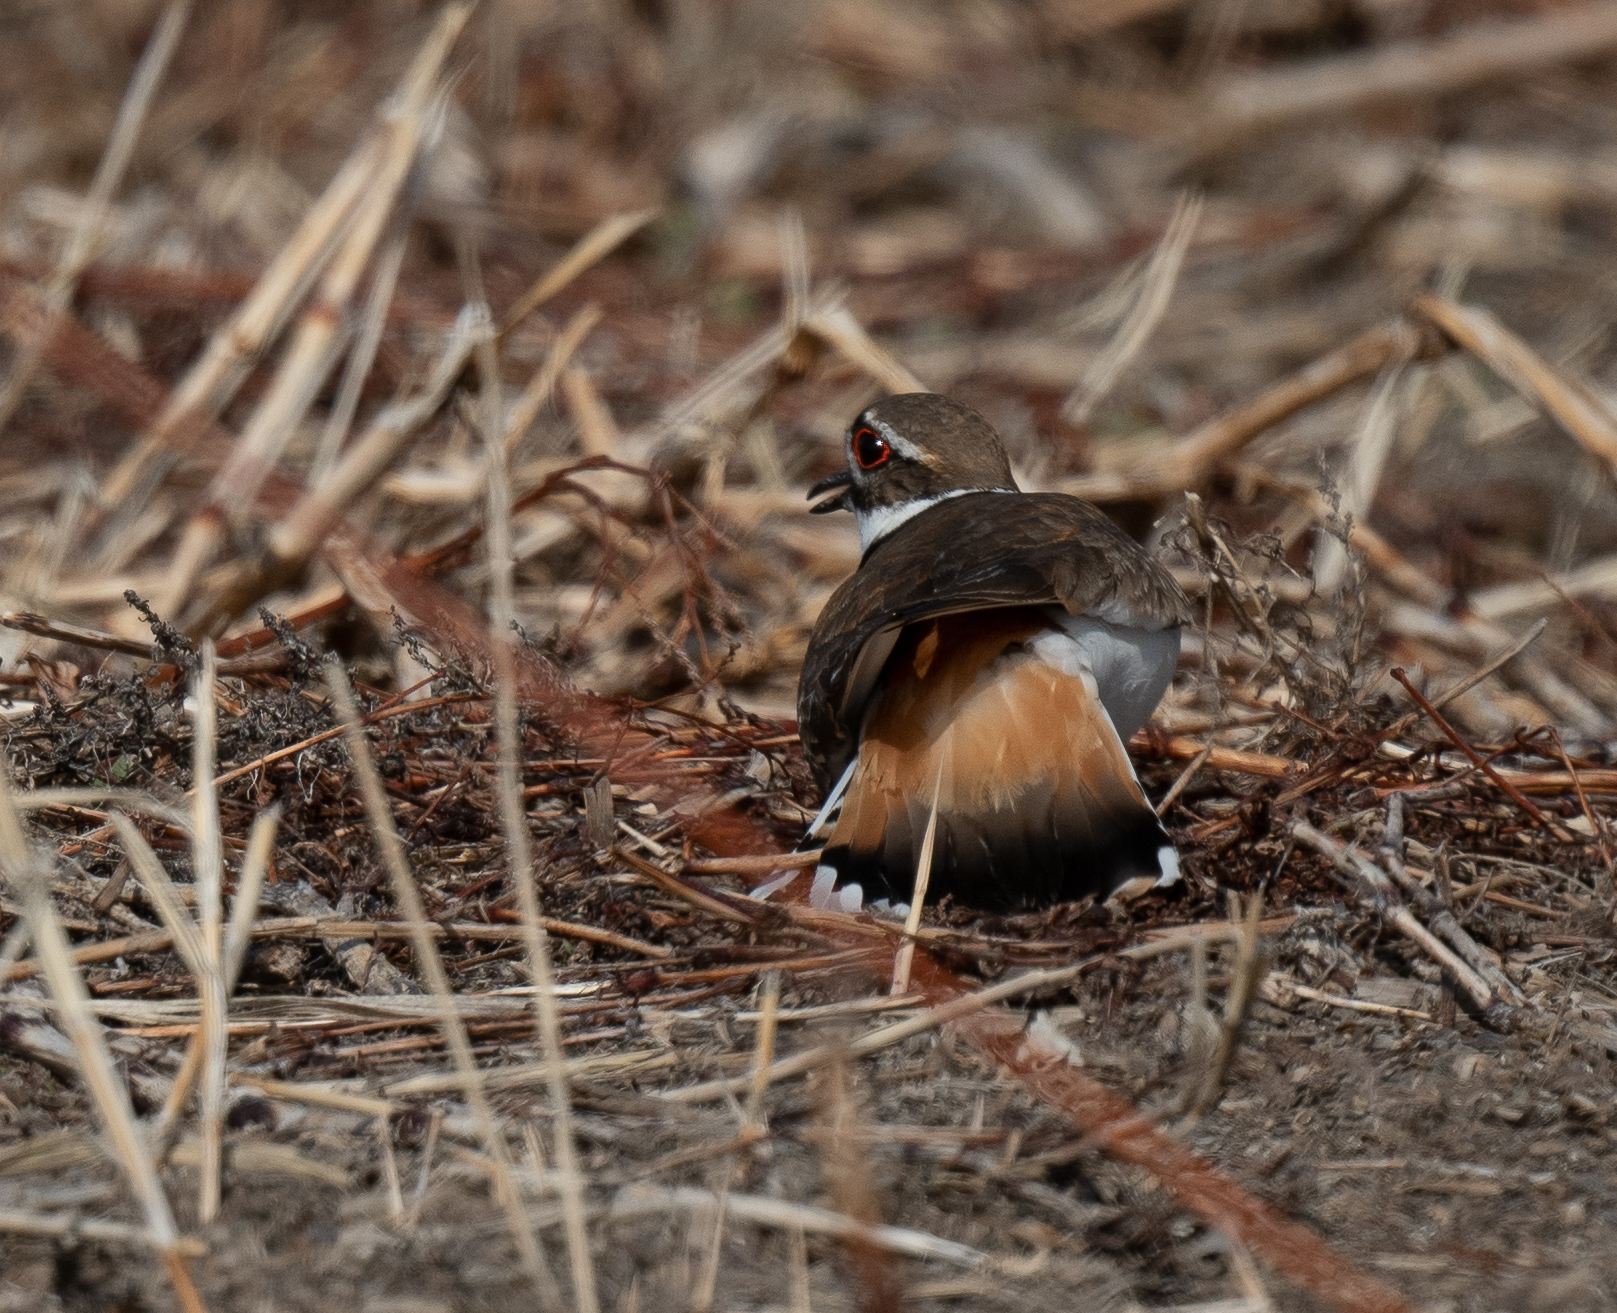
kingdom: Animalia
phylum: Chordata
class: Aves
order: Charadriiformes
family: Charadriidae
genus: Charadrius
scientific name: Charadrius vociferus
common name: Killdeer
